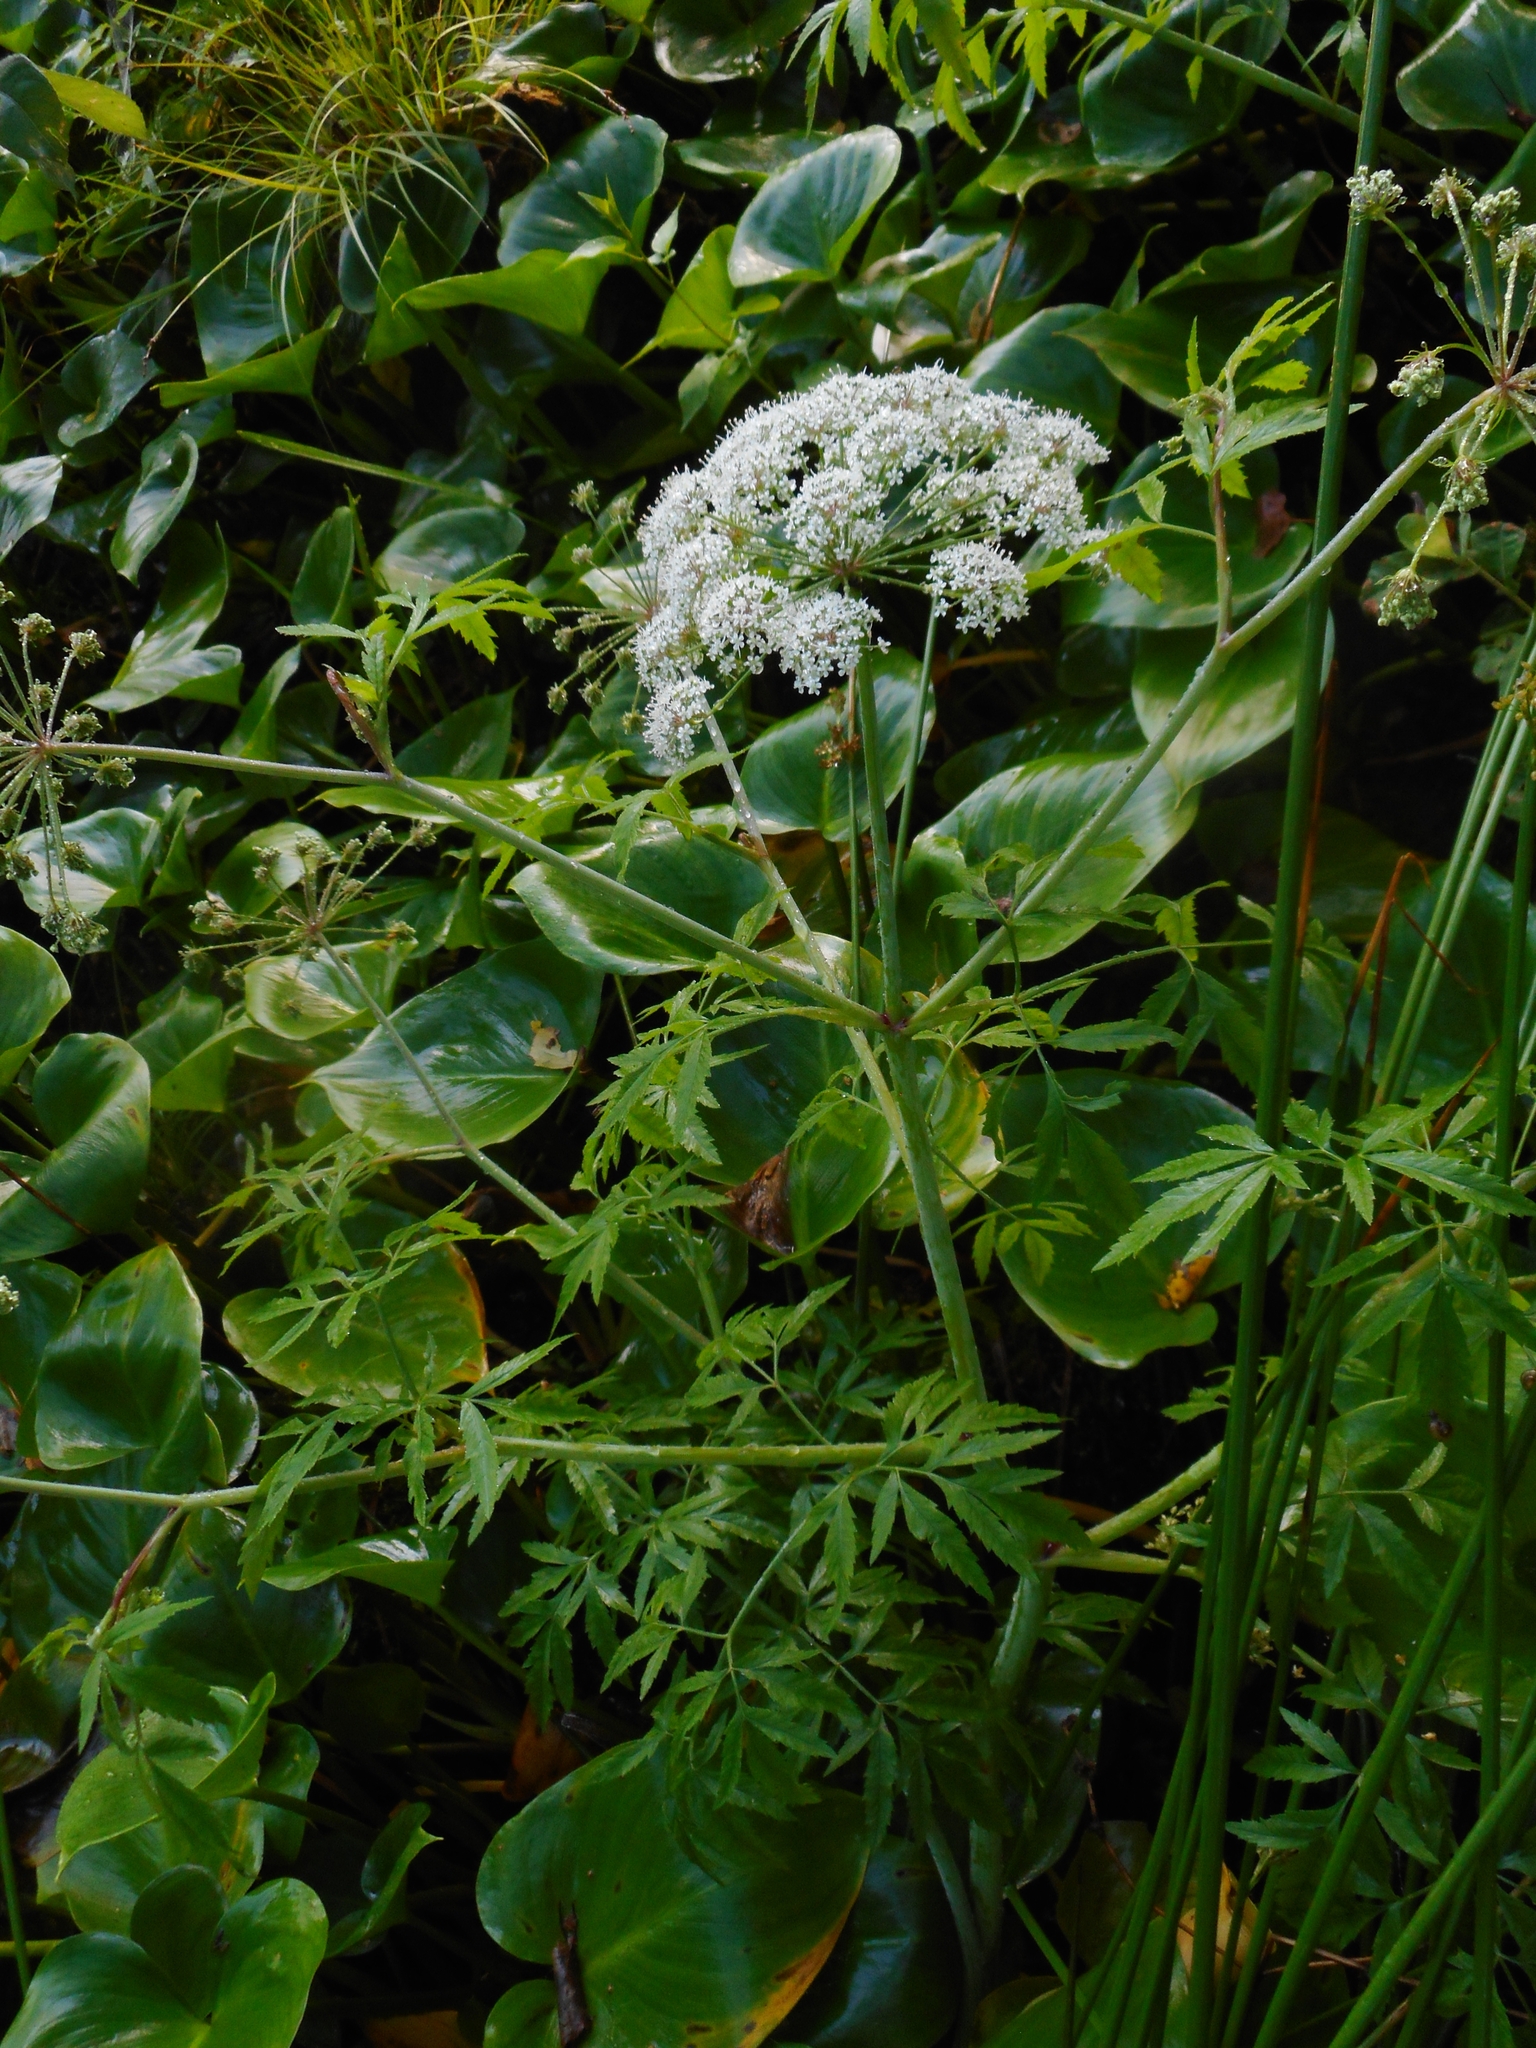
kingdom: Plantae
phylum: Tracheophyta
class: Magnoliopsida
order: Apiales
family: Apiaceae
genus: Cicuta
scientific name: Cicuta virosa
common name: Cowbane
